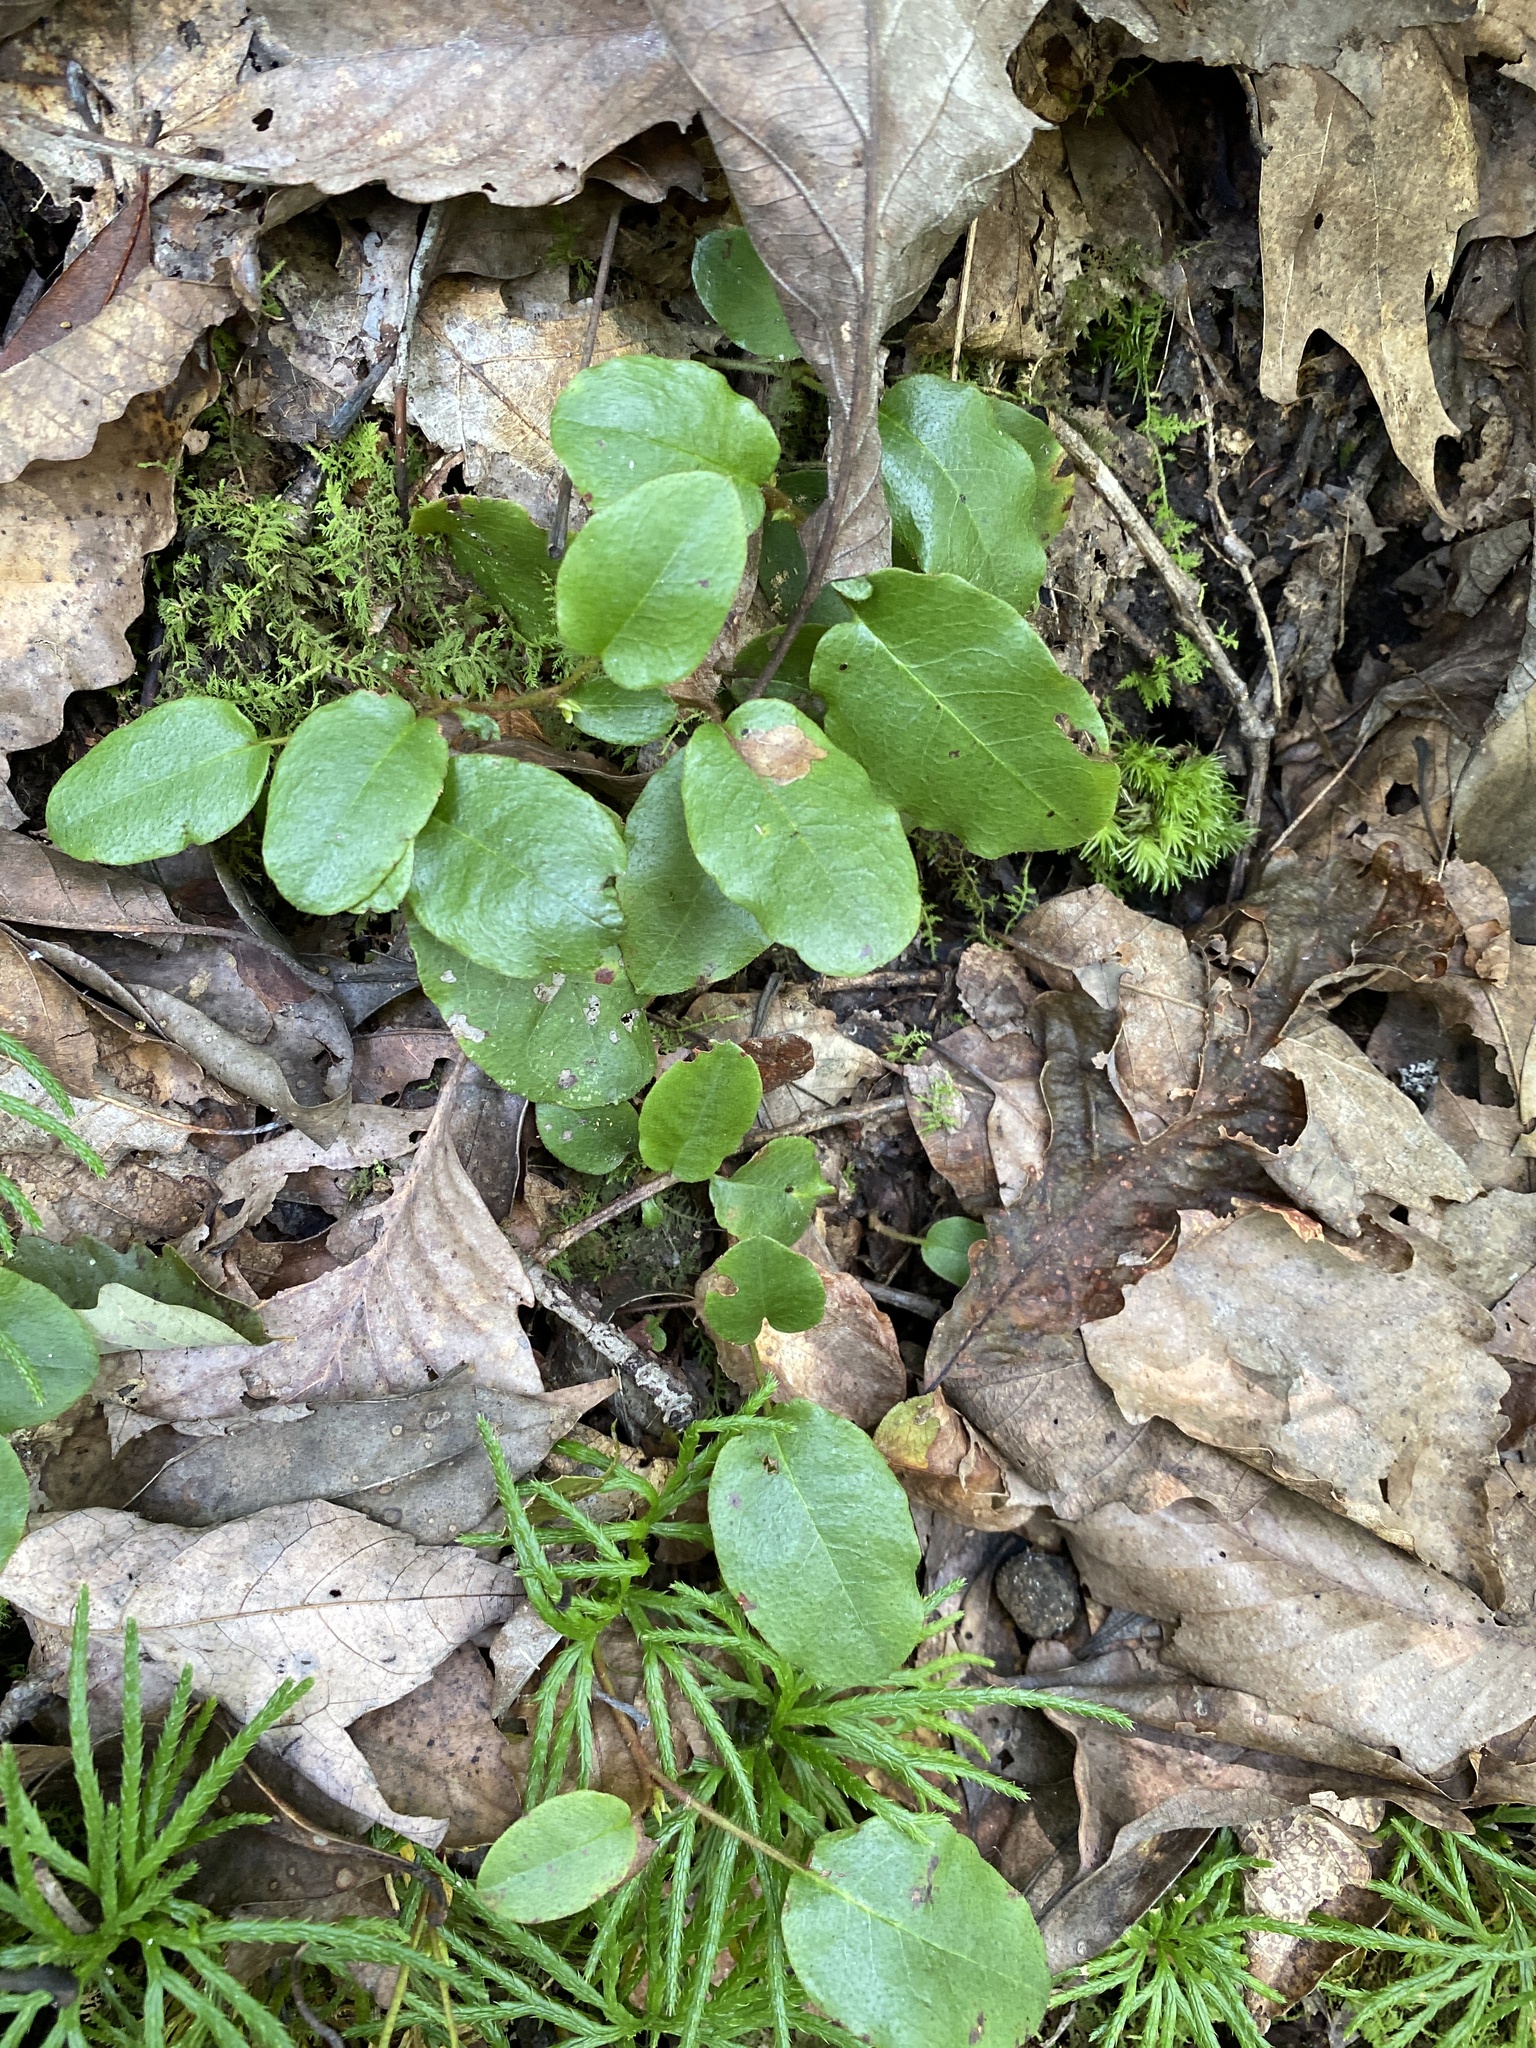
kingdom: Plantae
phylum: Tracheophyta
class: Magnoliopsida
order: Ericales
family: Ericaceae
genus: Epigaea
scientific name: Epigaea repens
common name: Gravelroot
